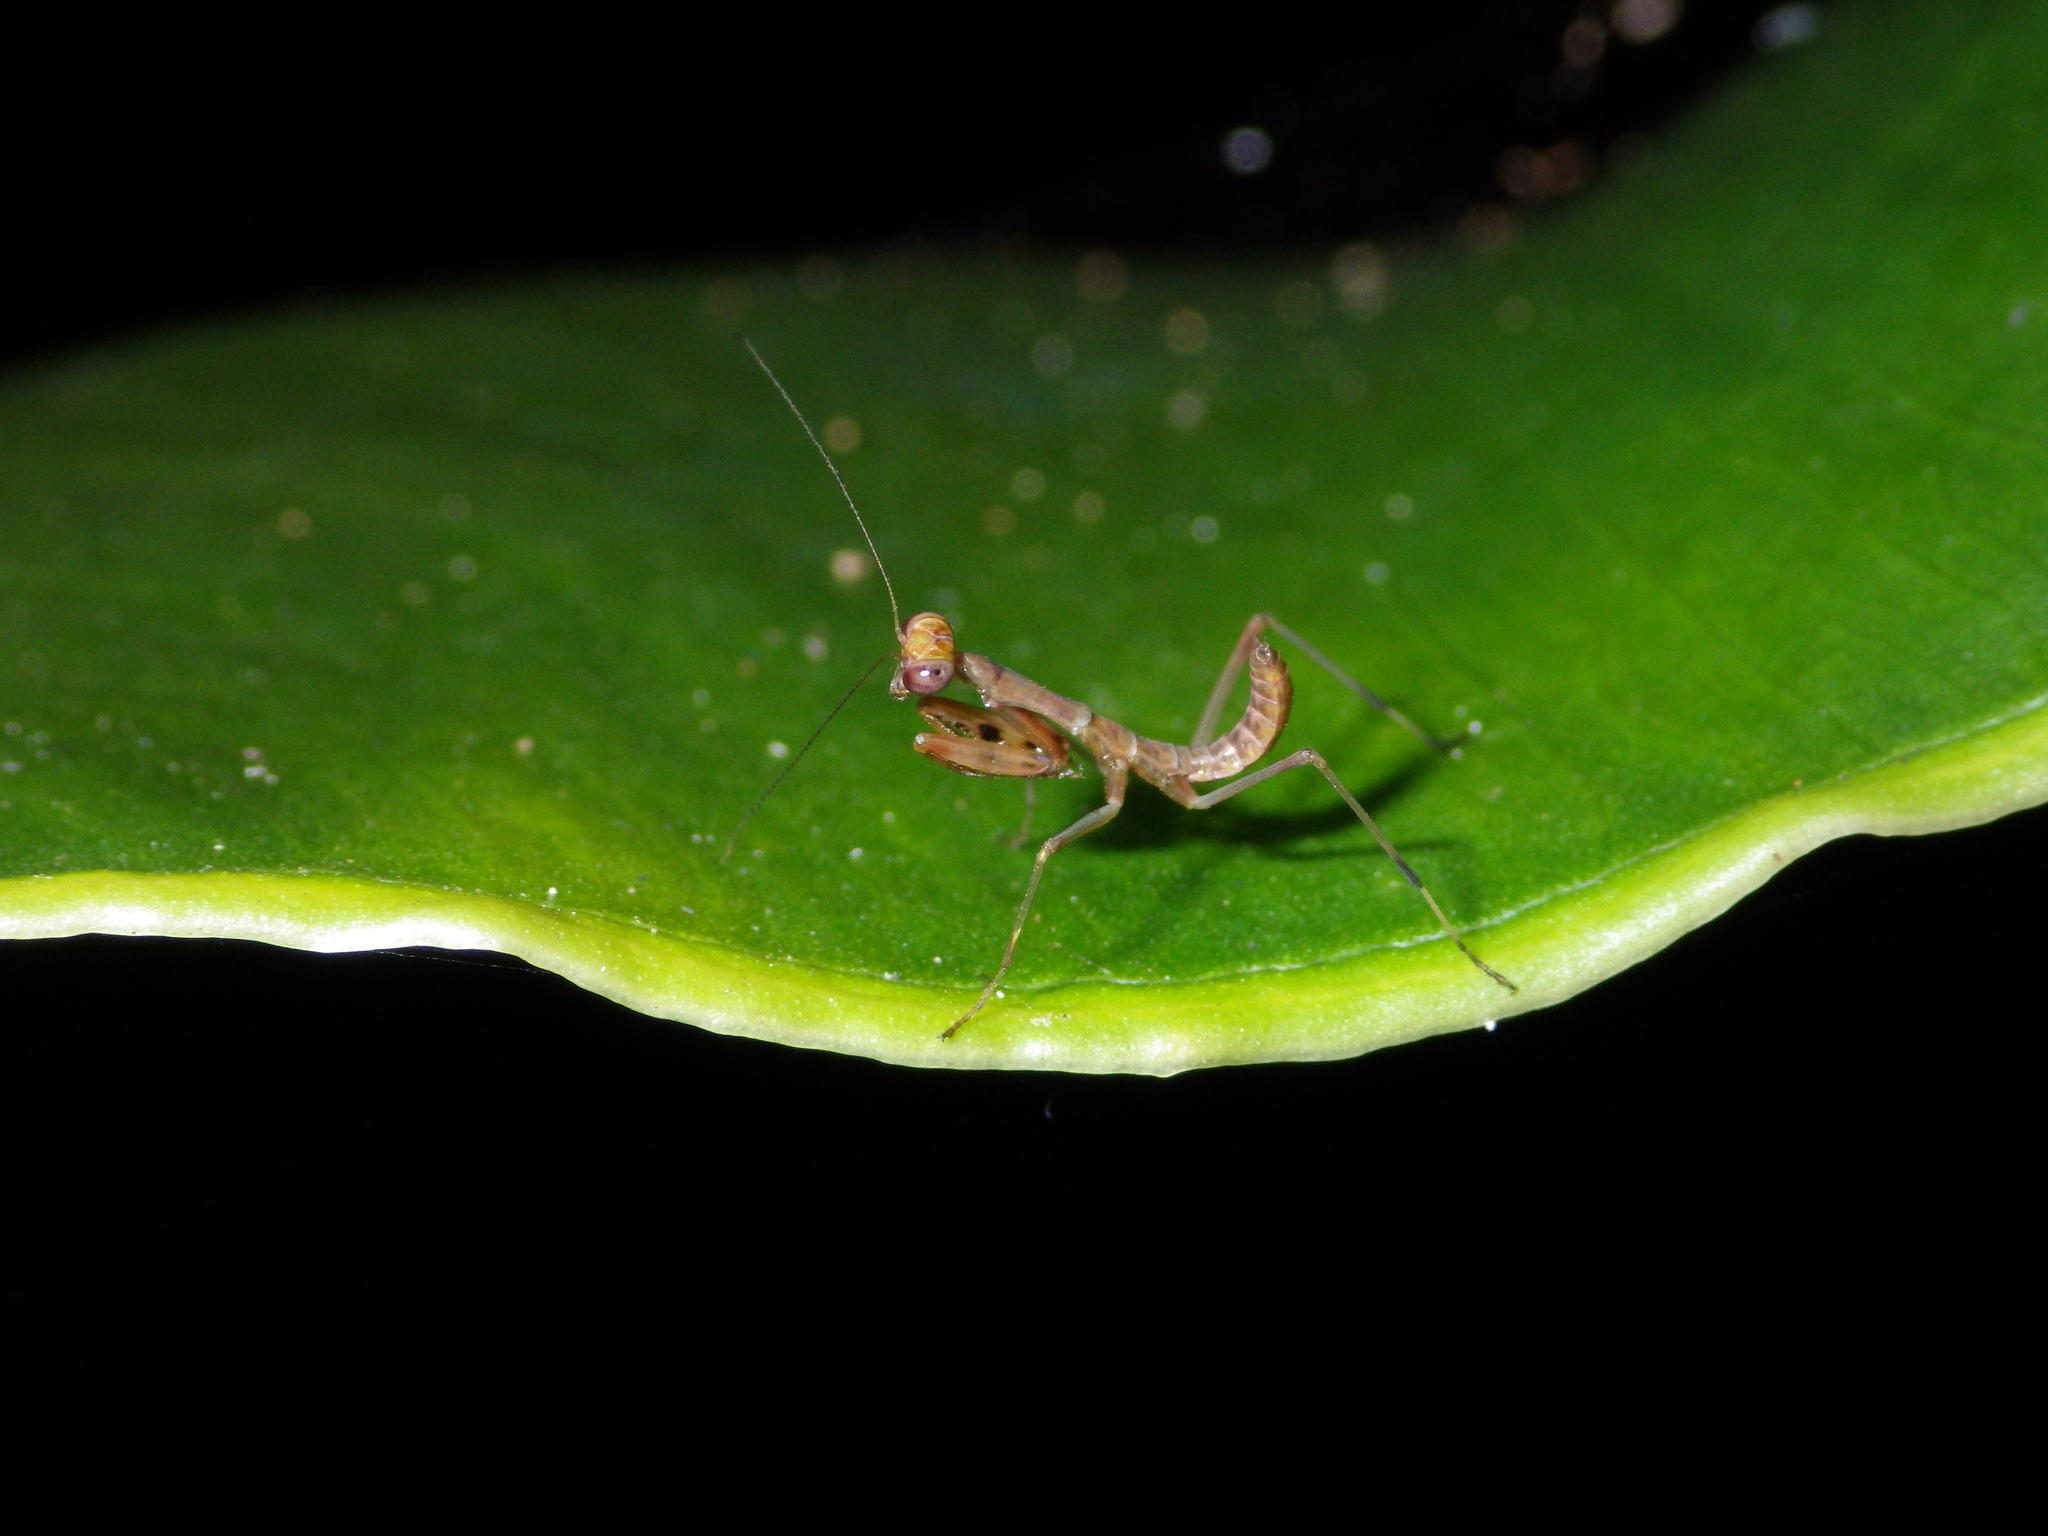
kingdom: Animalia
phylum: Arthropoda
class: Insecta
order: Mantodea
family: Mantidae
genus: Hierodula
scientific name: Hierodula majuscula
